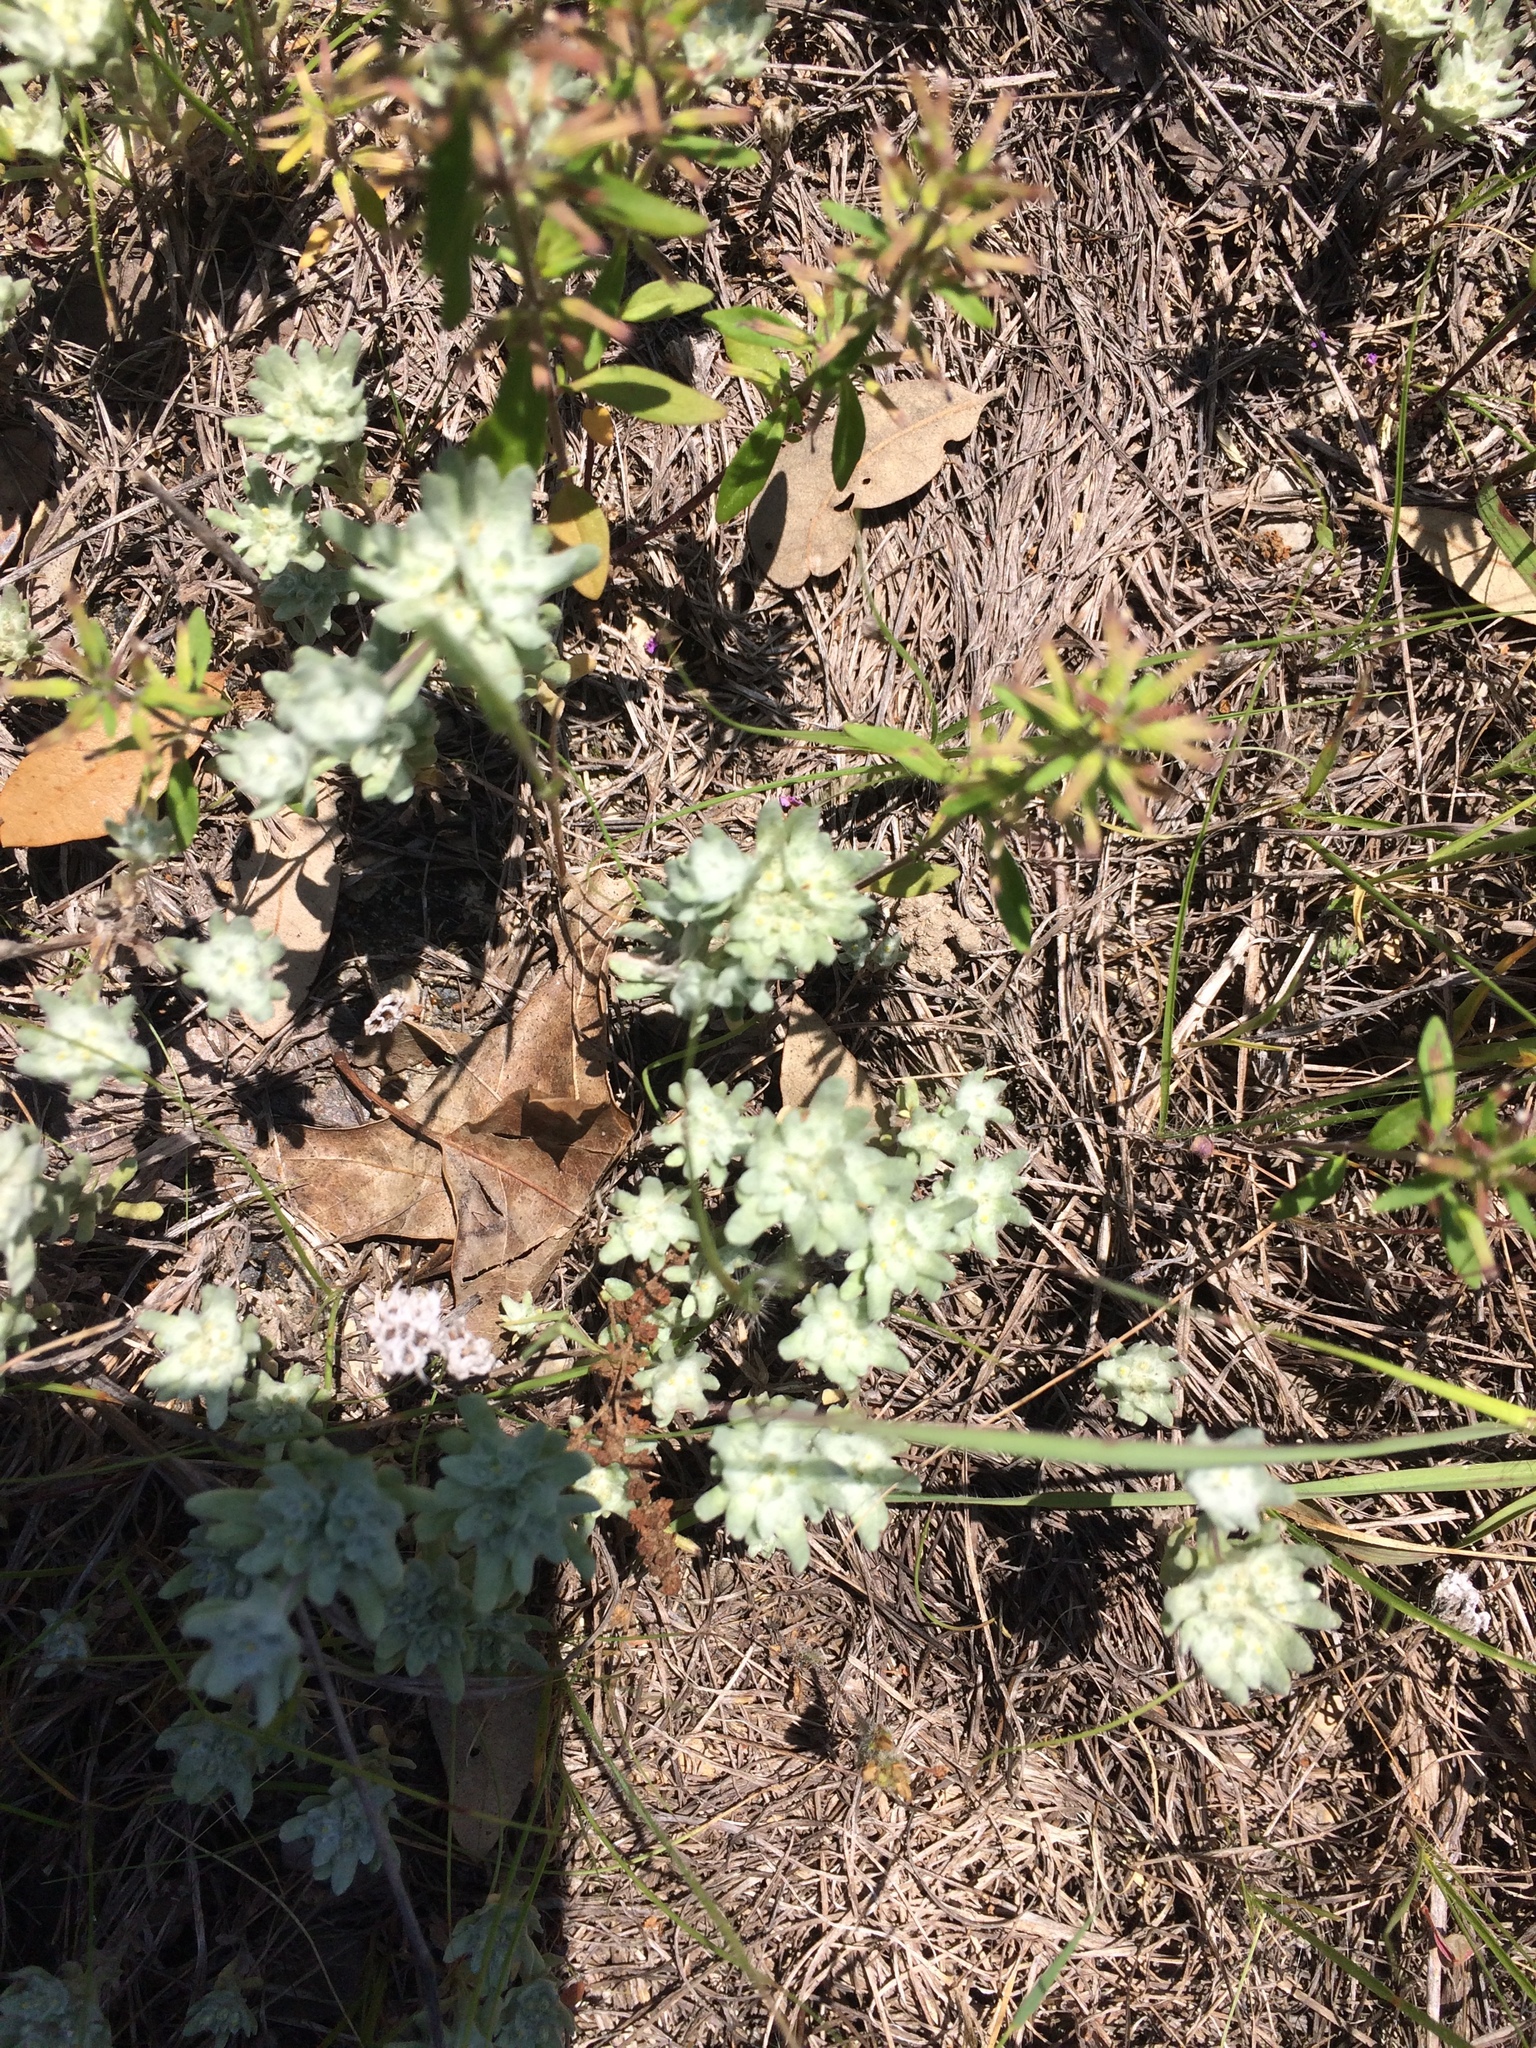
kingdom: Plantae
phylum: Tracheophyta
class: Magnoliopsida
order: Asterales
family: Asteraceae
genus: Diaperia
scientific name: Diaperia prolifera
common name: Big-head rabbit-tobacco
